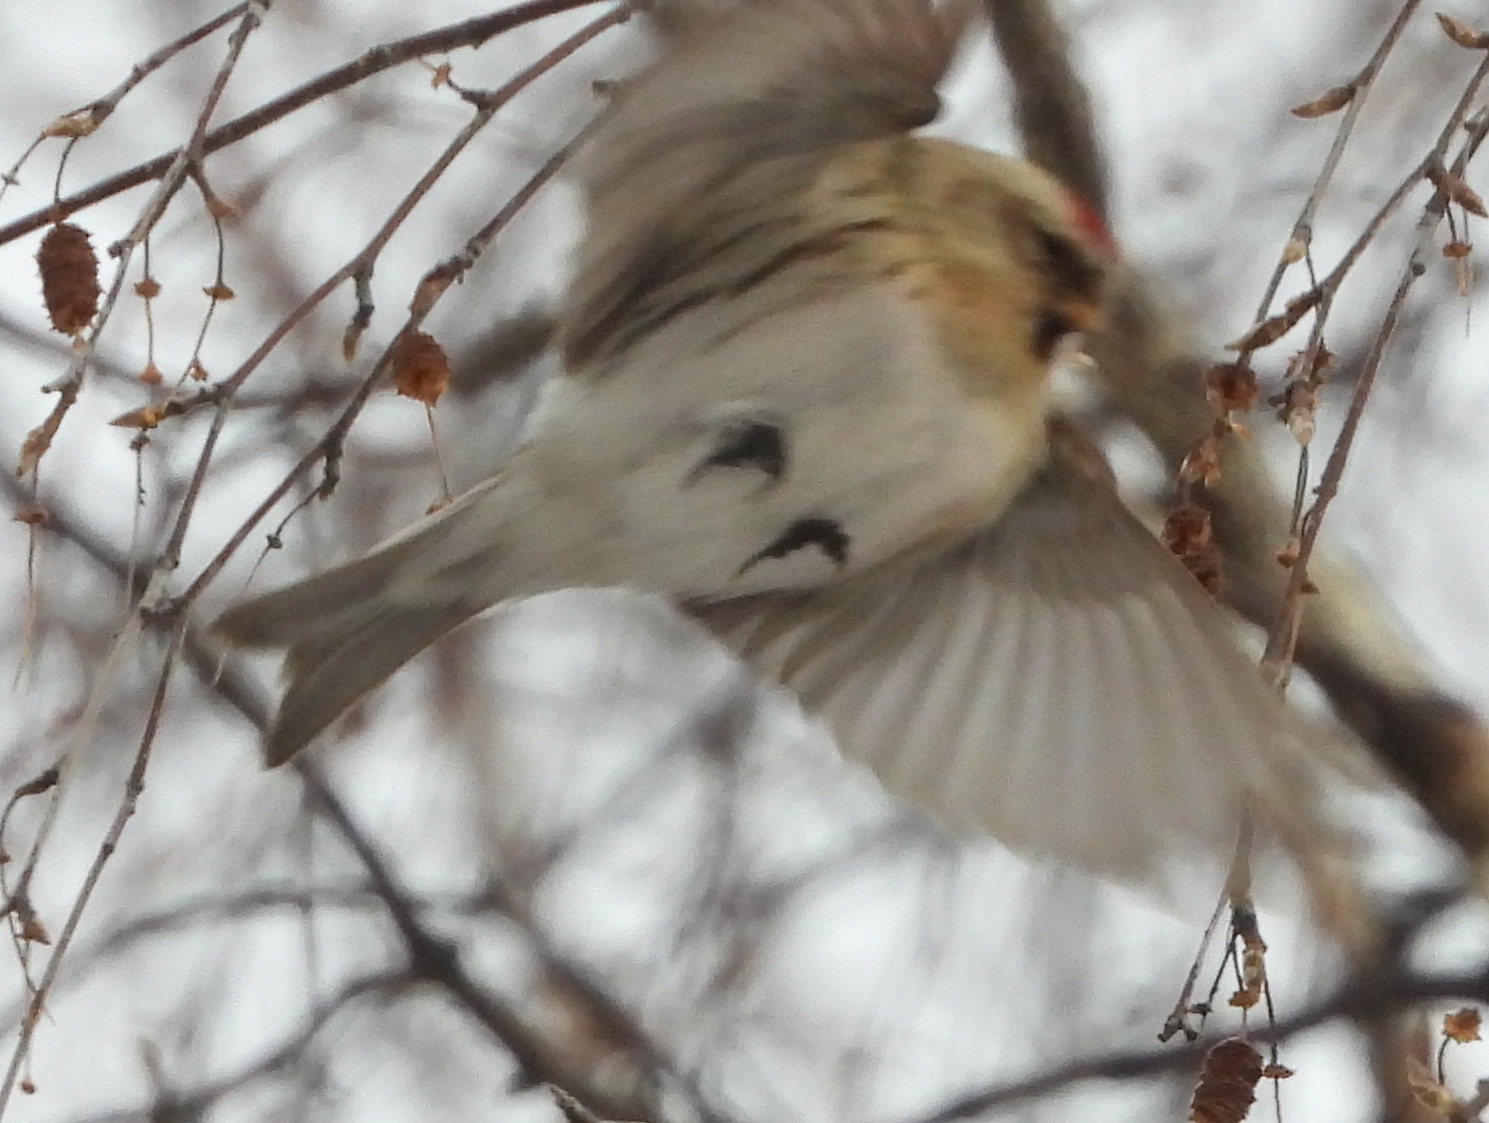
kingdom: Animalia
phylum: Chordata
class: Aves
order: Passeriformes
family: Fringillidae
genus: Acanthis
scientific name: Acanthis hornemanni
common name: Arctic redpoll
